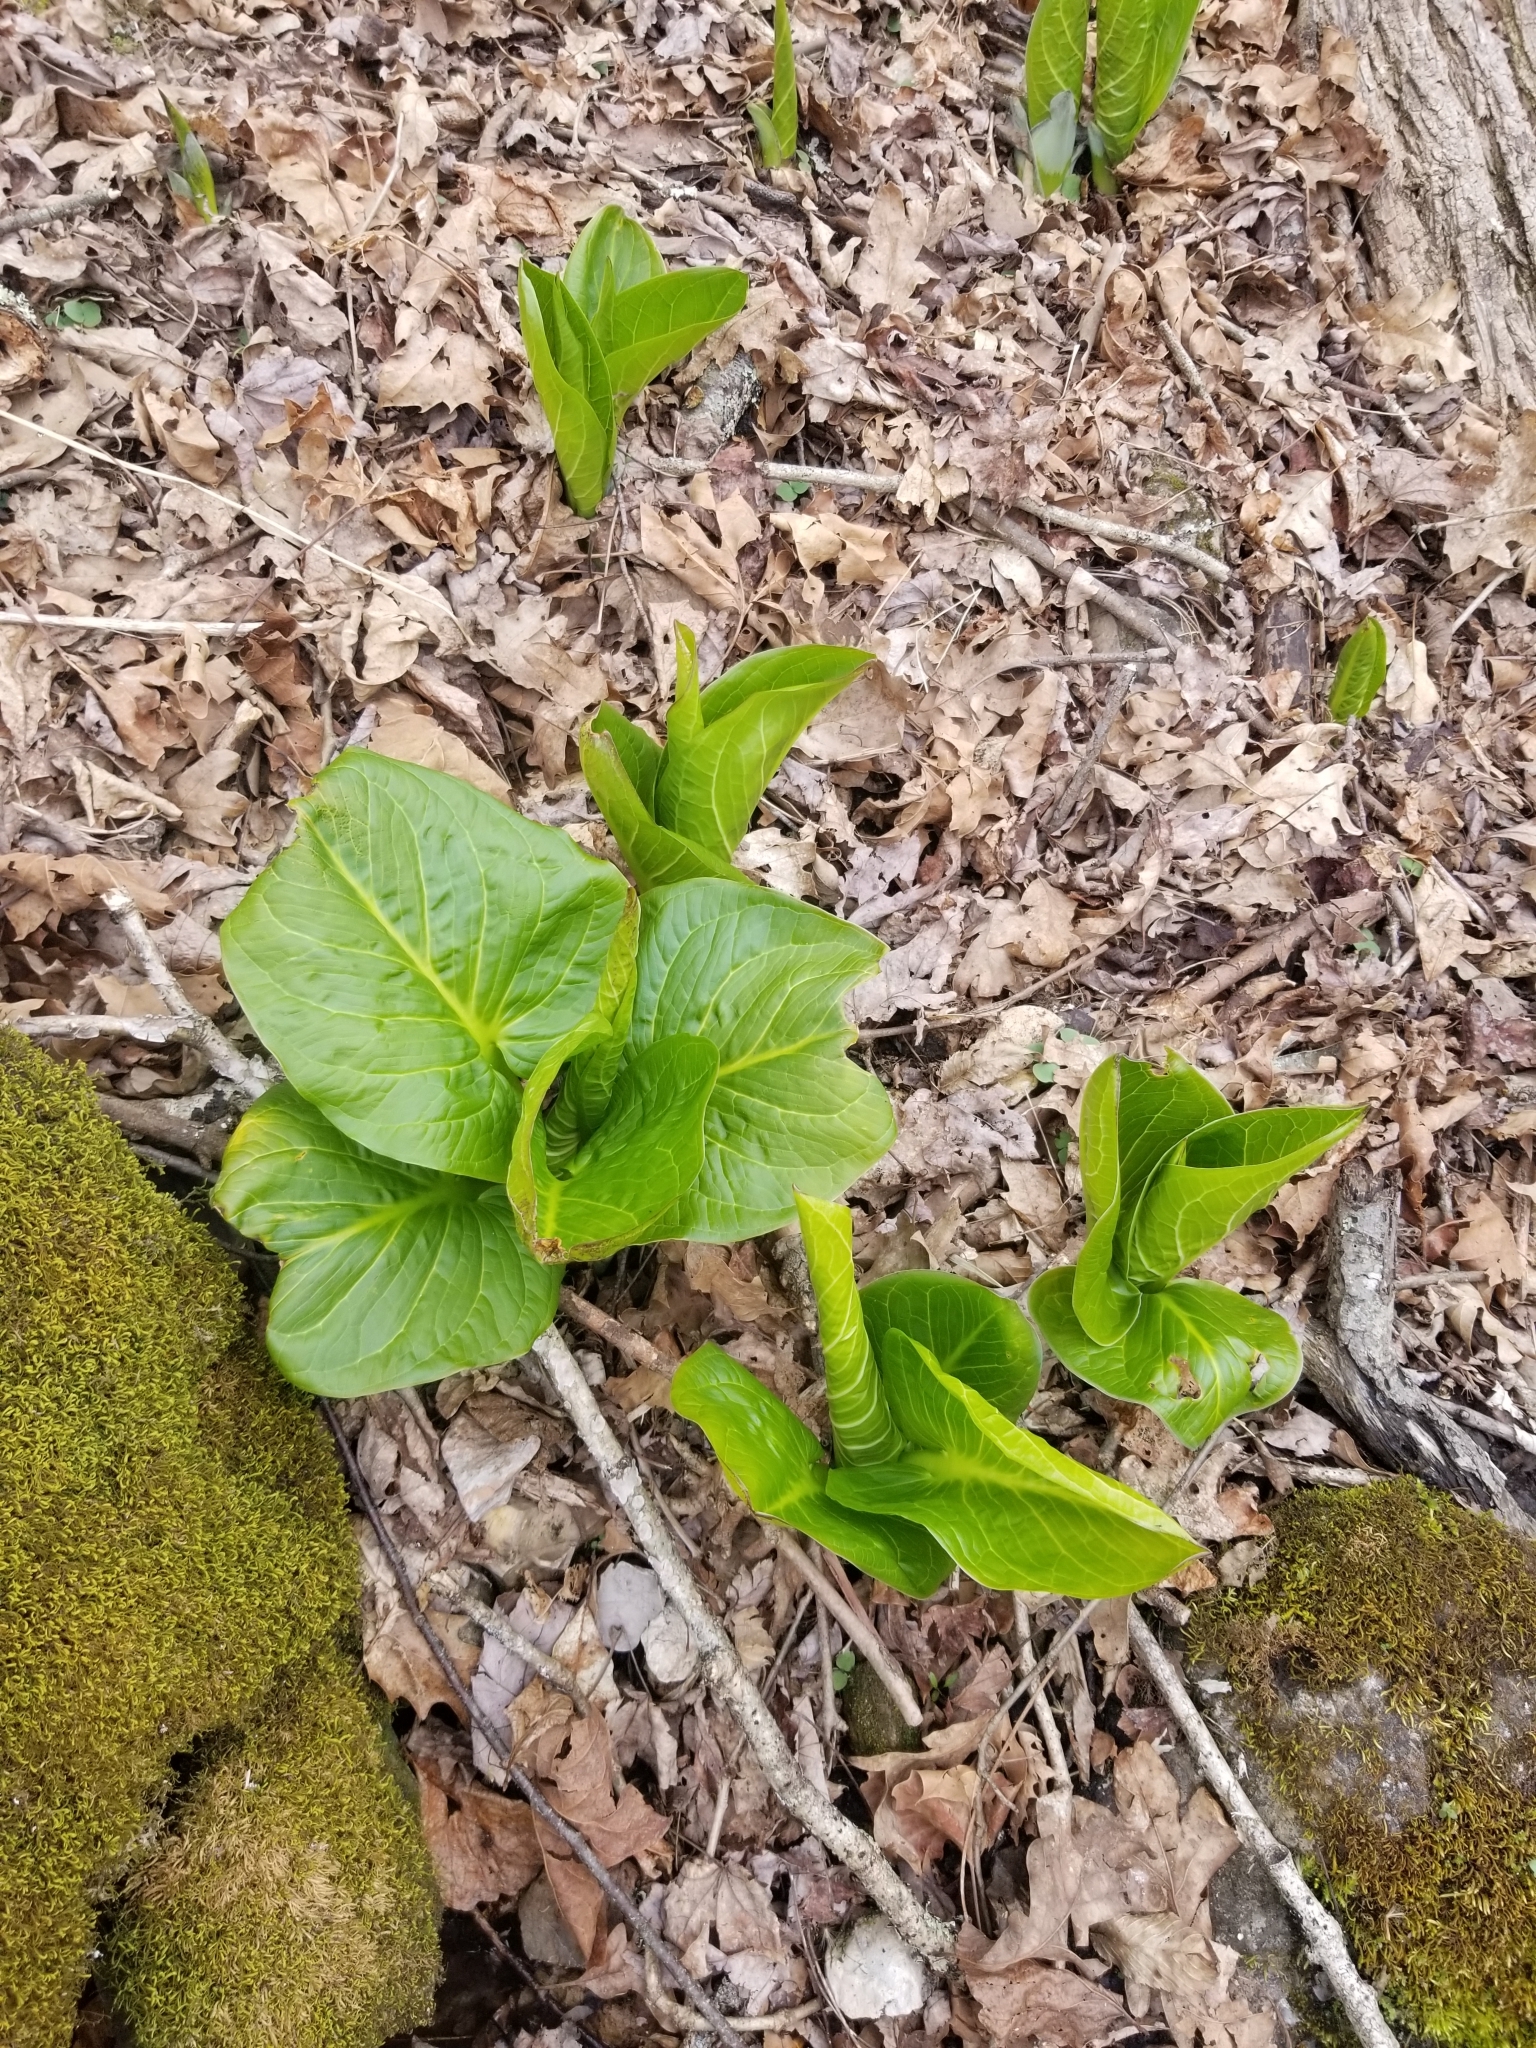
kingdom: Plantae
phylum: Tracheophyta
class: Liliopsida
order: Alismatales
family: Araceae
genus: Symplocarpus
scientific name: Symplocarpus foetidus
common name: Eastern skunk cabbage
